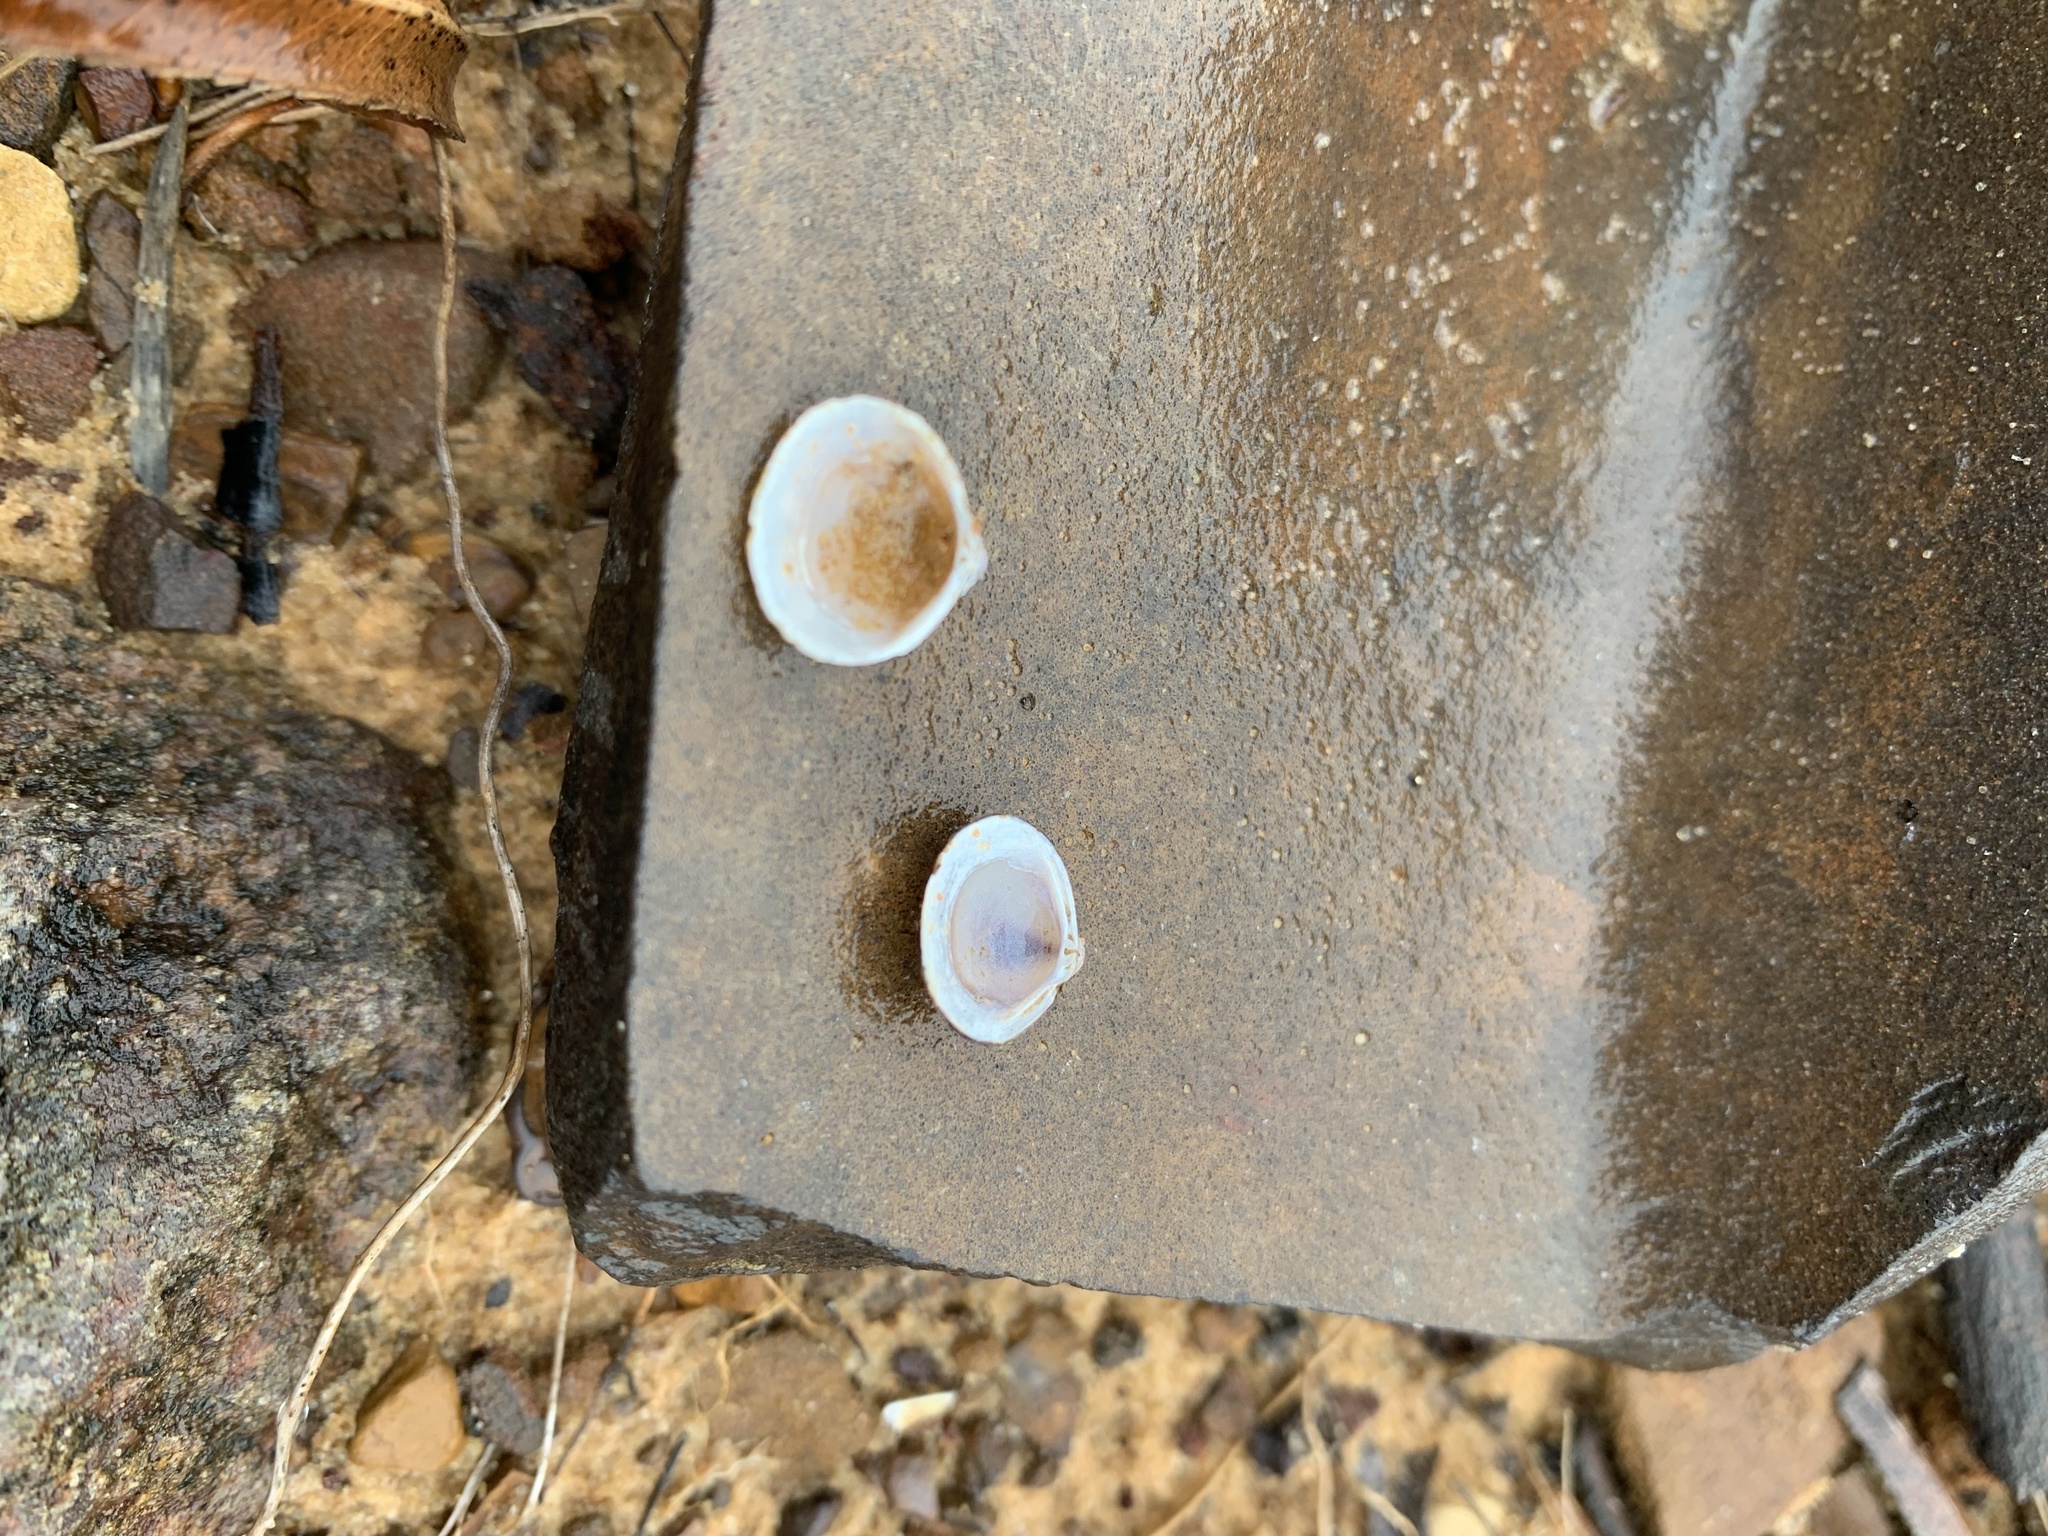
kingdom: Animalia
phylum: Mollusca
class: Bivalvia
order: Venerida
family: Cyrenidae
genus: Corbicula
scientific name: Corbicula fluminea
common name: Asian clam
